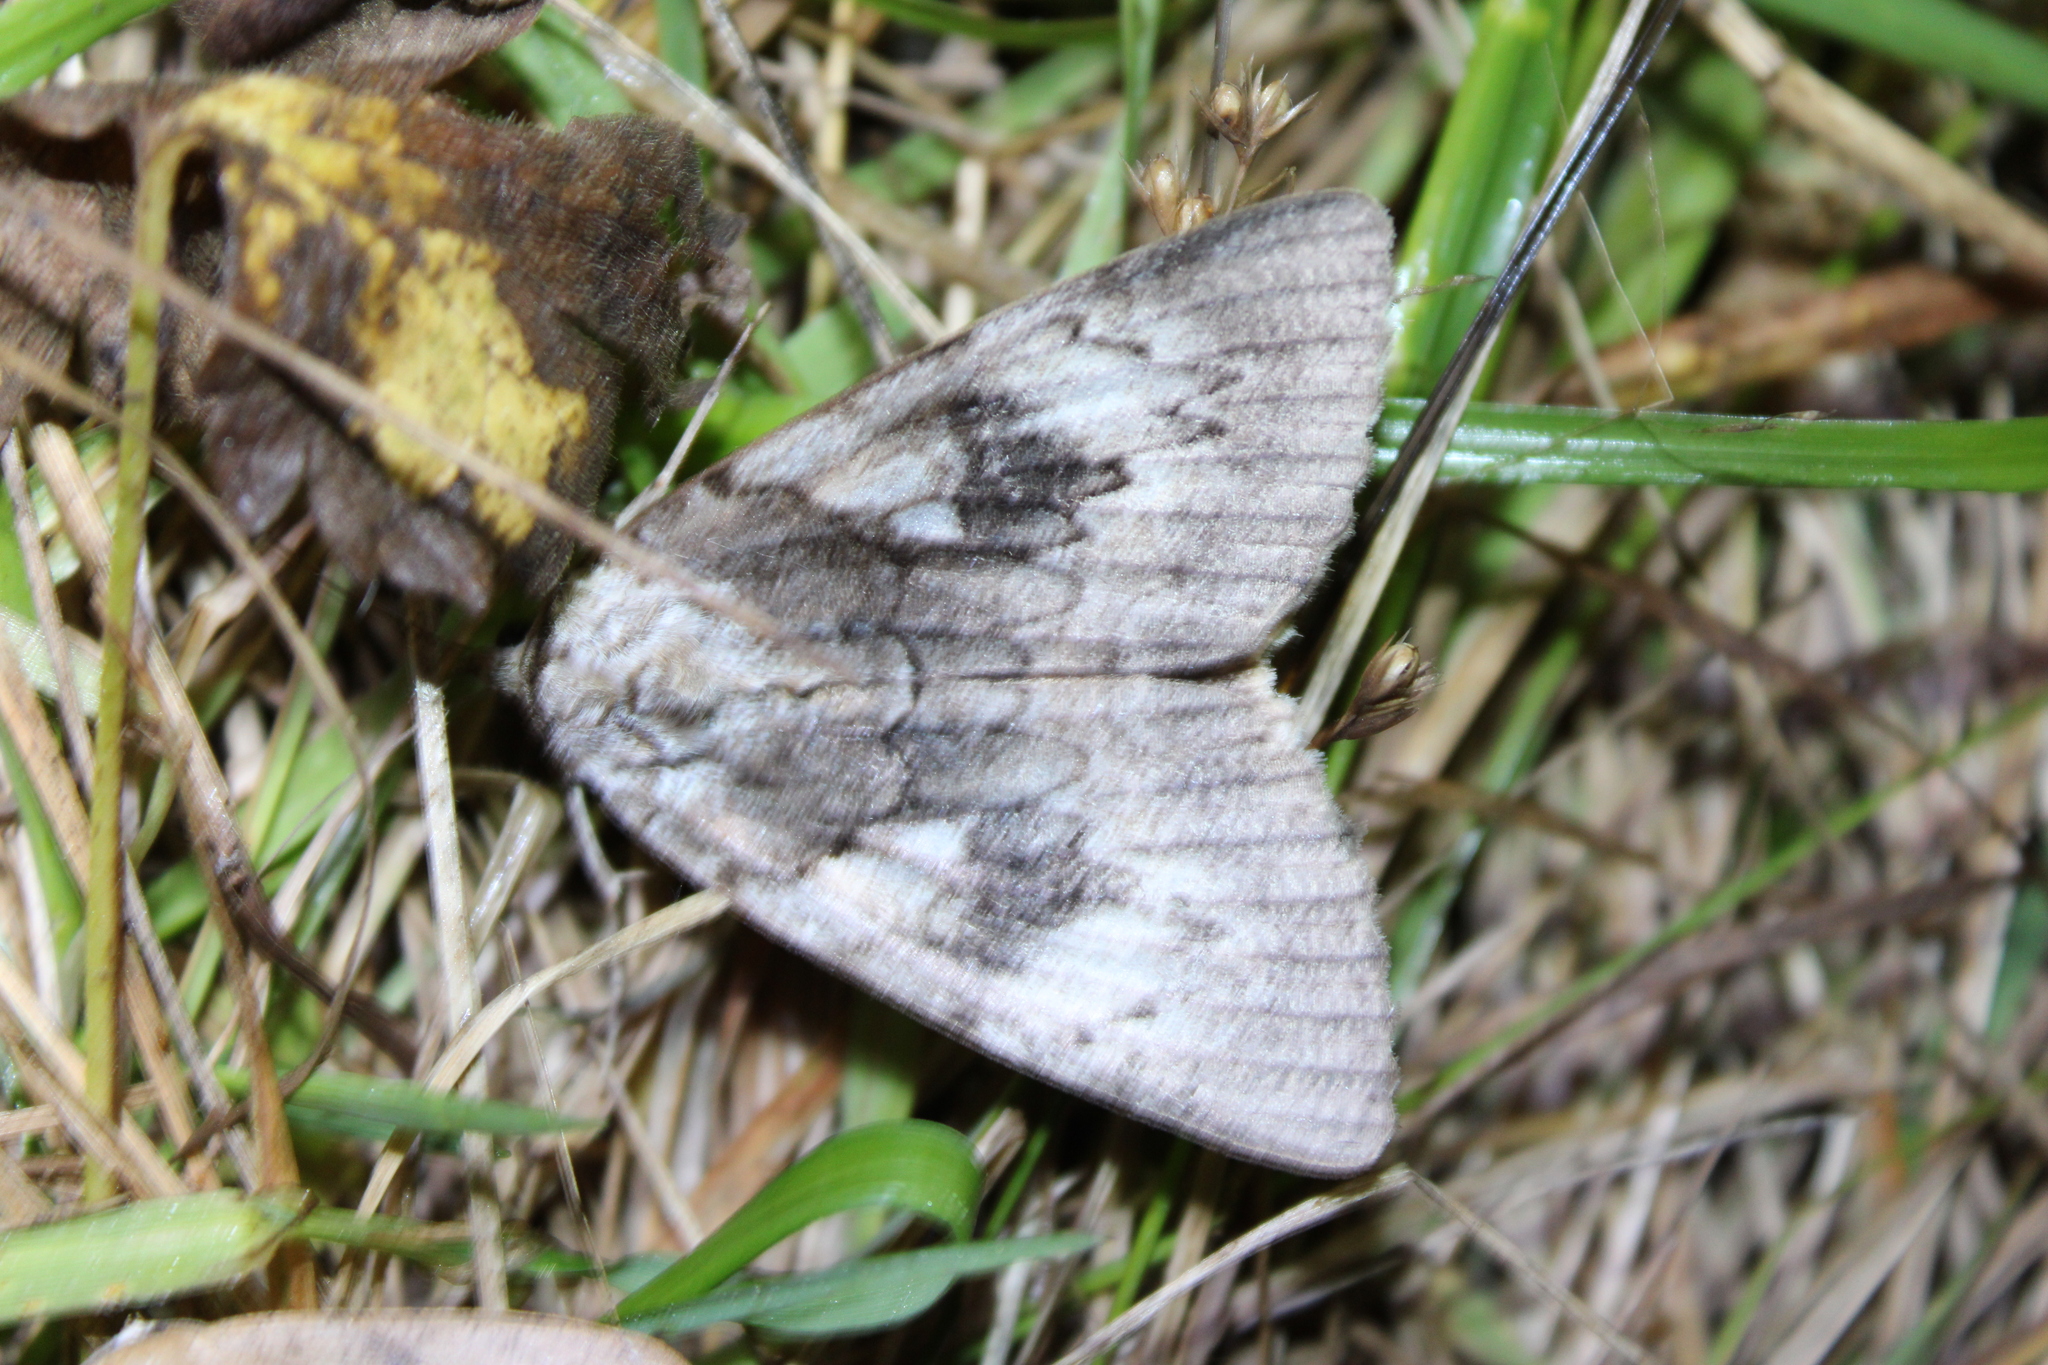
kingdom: Animalia
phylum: Arthropoda
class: Insecta
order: Lepidoptera
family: Erebidae
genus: Catocala
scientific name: Catocala cerogama
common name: Yellow banded underwing
